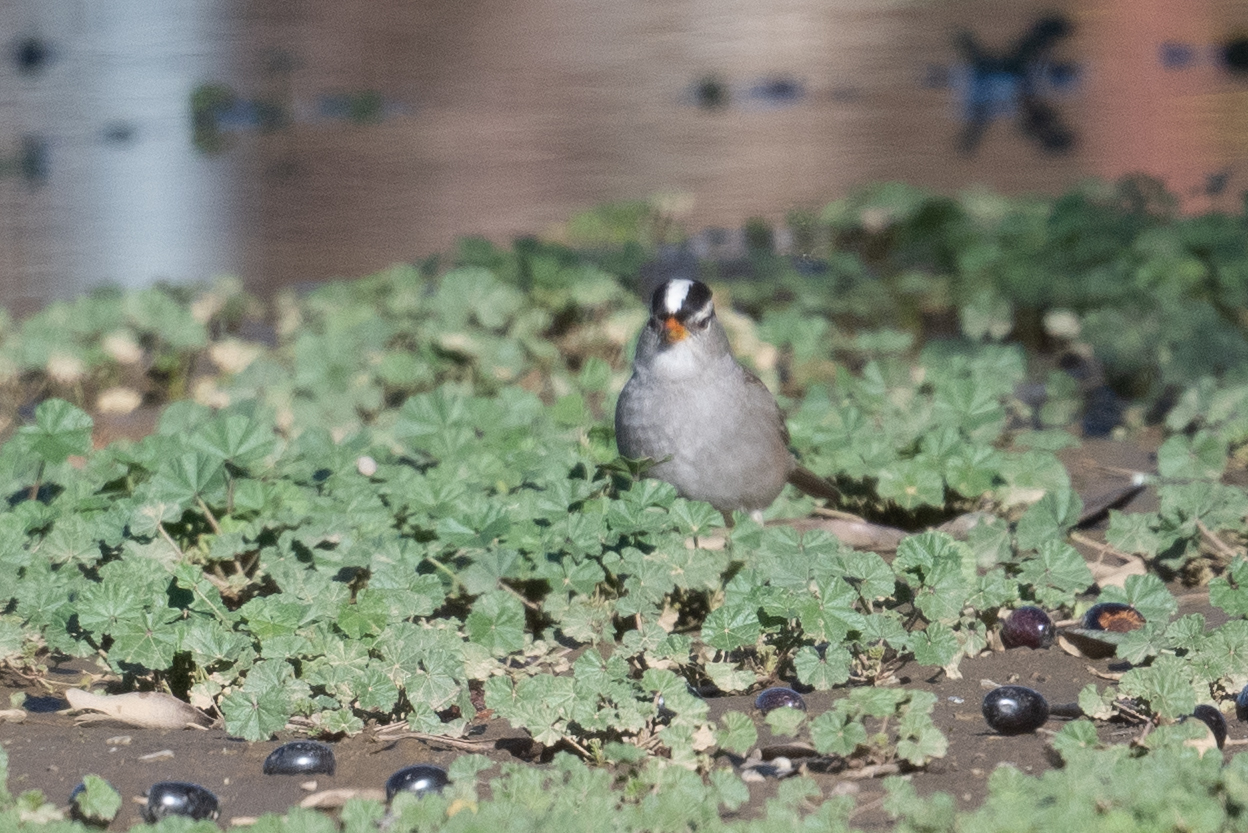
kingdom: Animalia
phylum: Chordata
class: Aves
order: Passeriformes
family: Passerellidae
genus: Zonotrichia
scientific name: Zonotrichia leucophrys
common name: White-crowned sparrow
